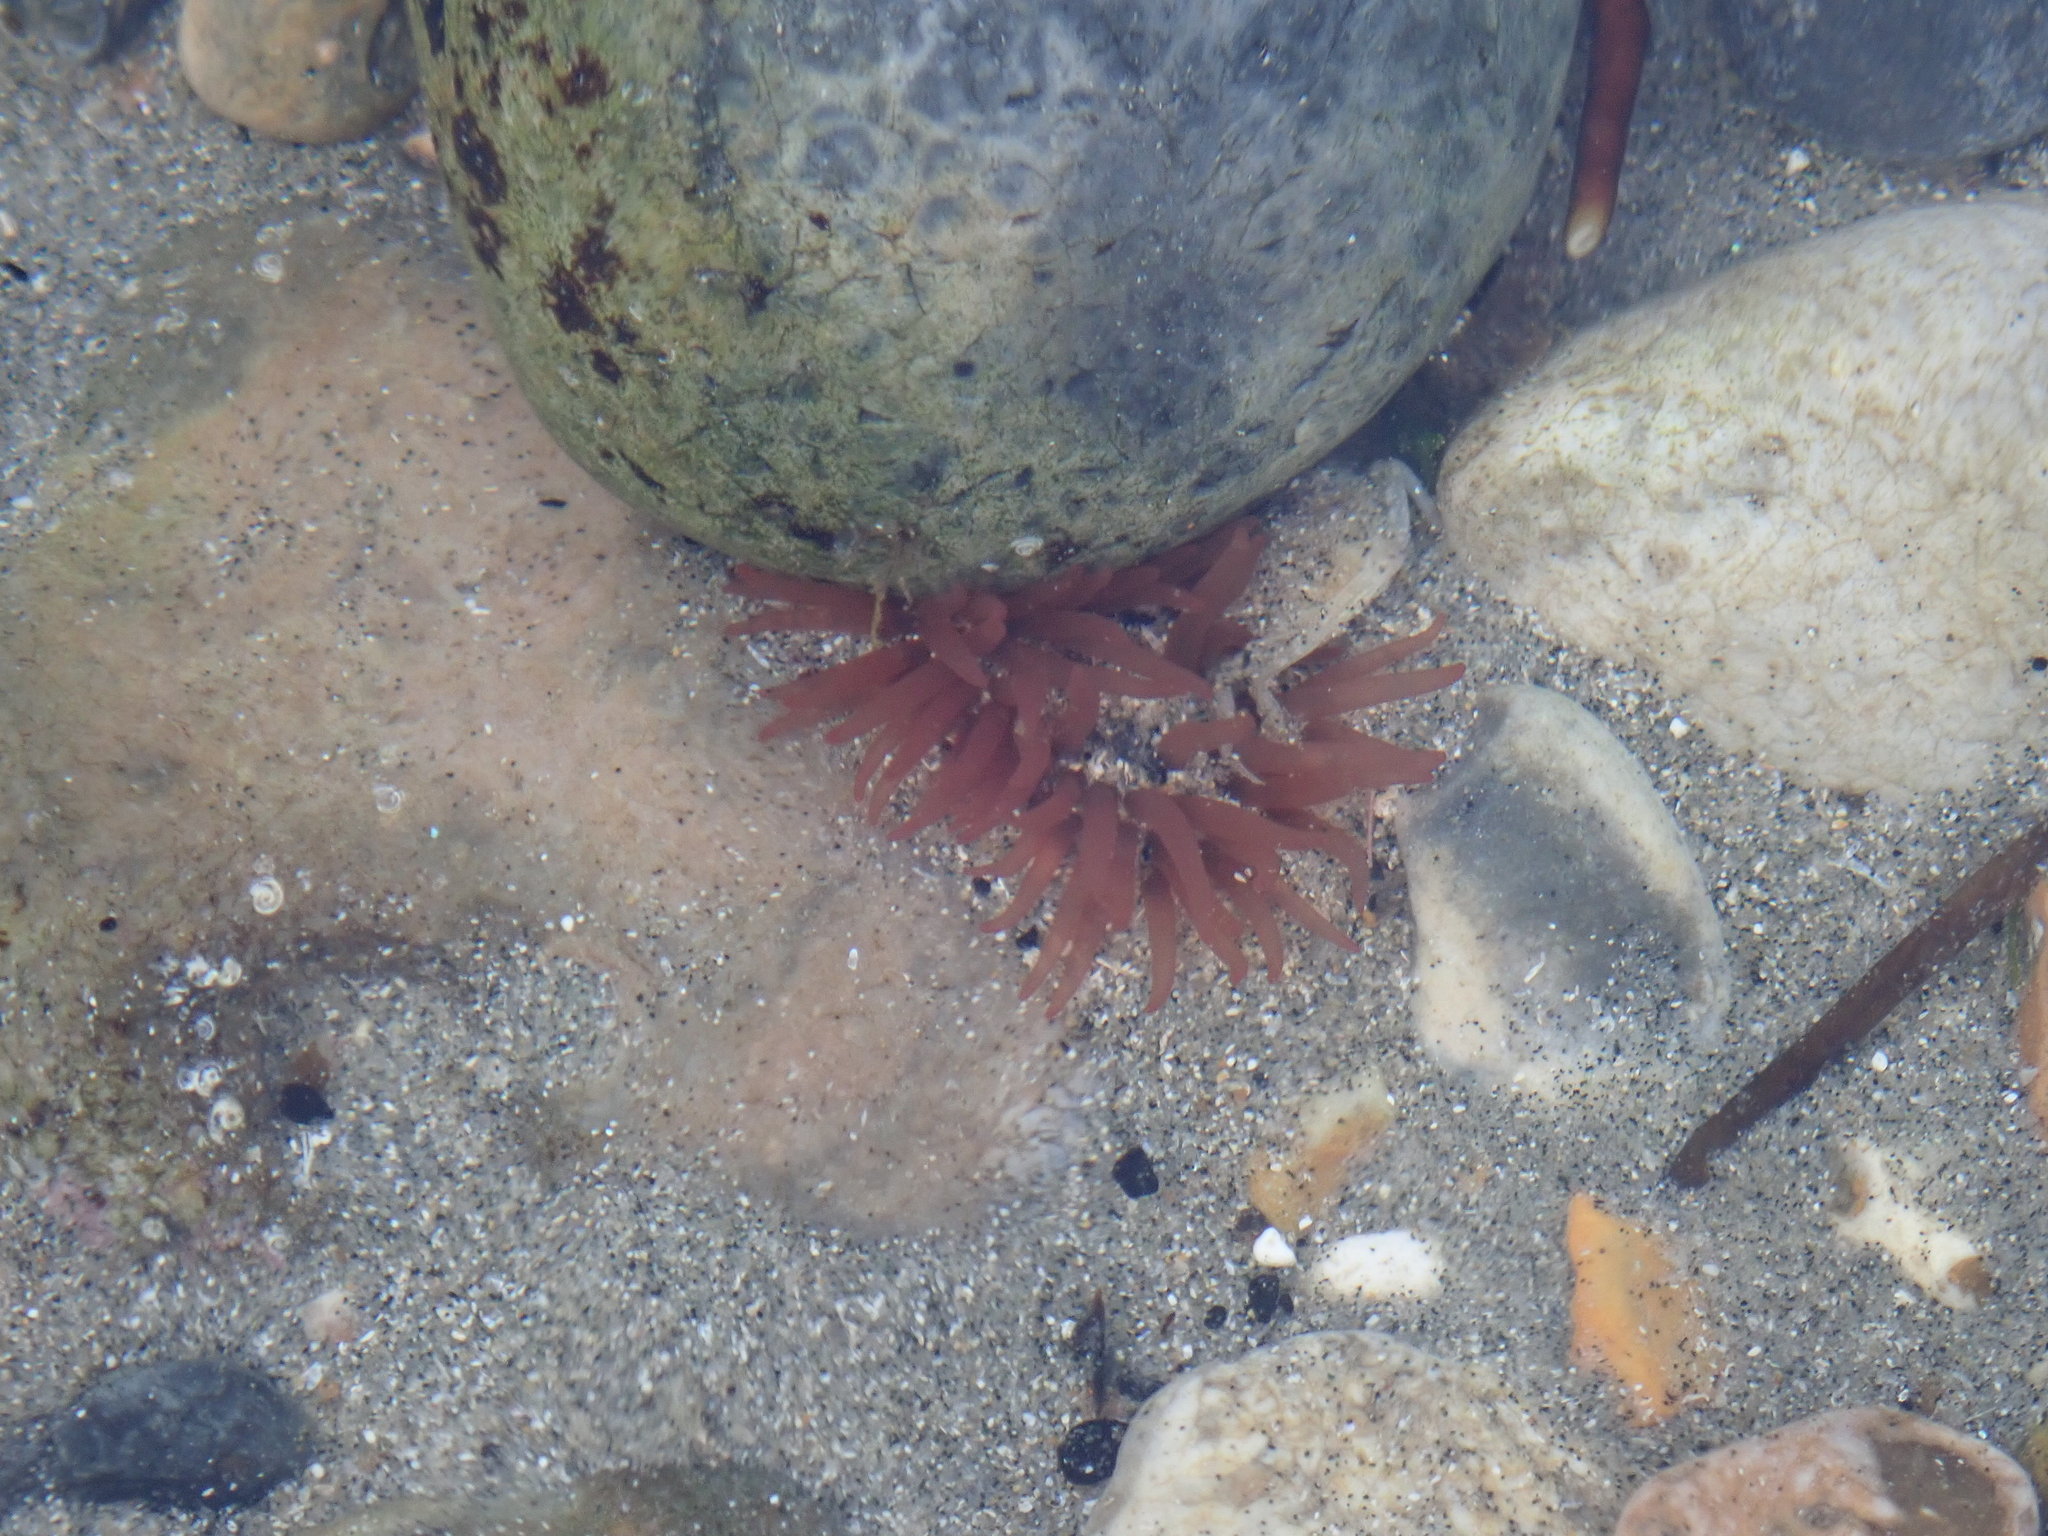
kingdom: Animalia
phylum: Cnidaria
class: Anthozoa
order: Actiniaria
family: Actiniidae
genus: Actinia
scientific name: Actinia equina
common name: Beadlet anemone
